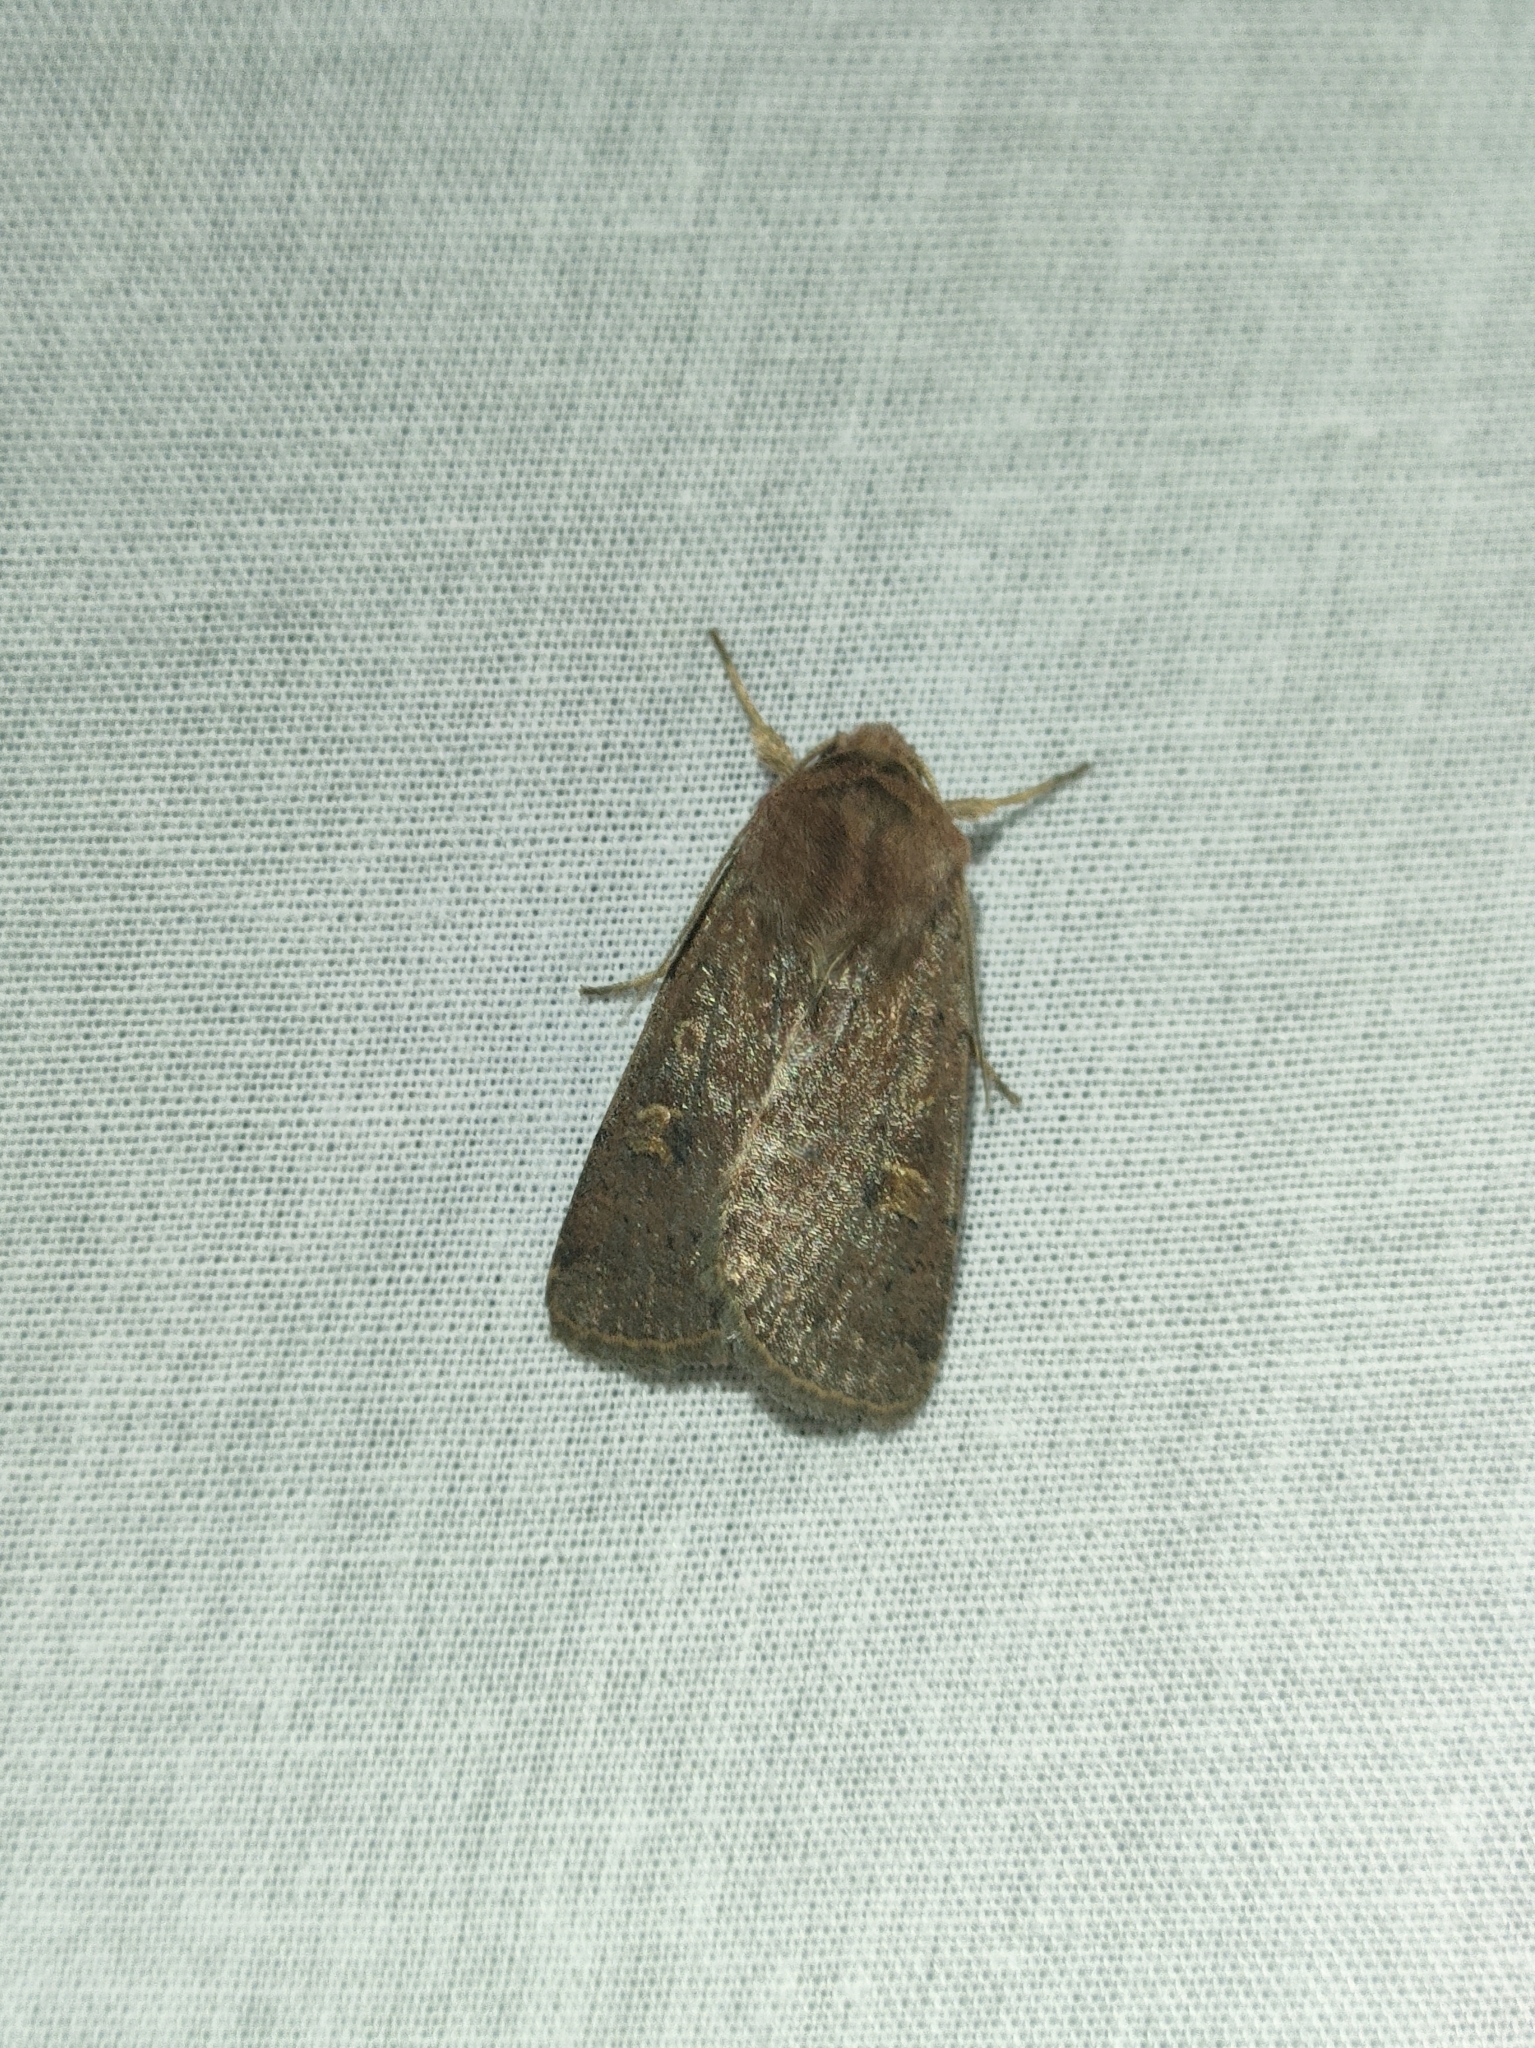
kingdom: Animalia
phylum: Arthropoda
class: Insecta
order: Lepidoptera
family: Noctuidae
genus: Xestia
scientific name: Xestia xanthographa
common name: Square-spot rustic
